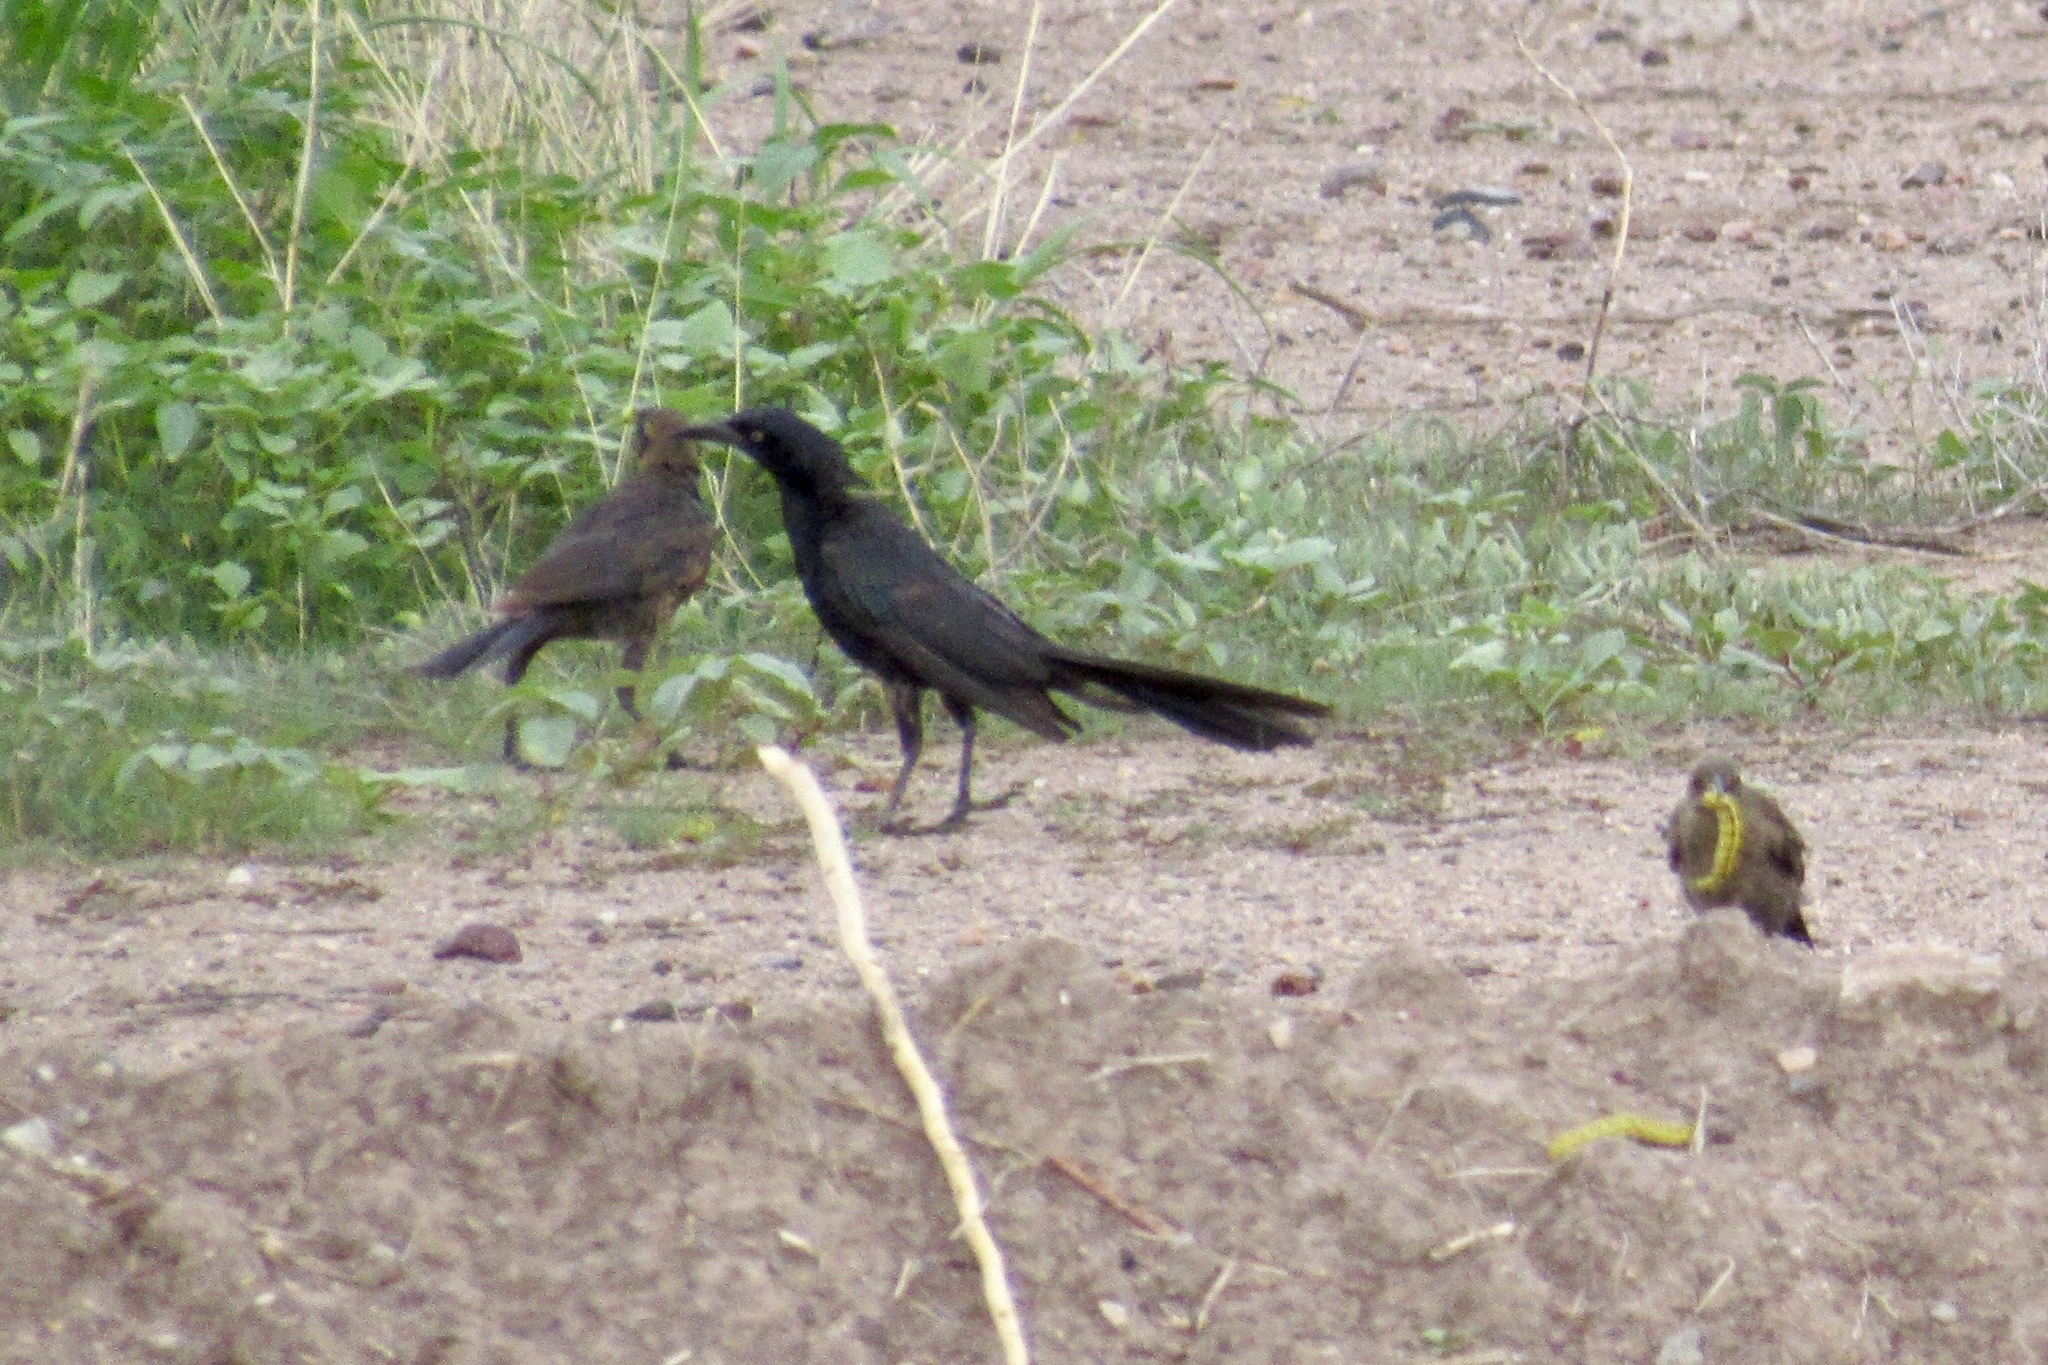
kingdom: Animalia
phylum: Chordata
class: Aves
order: Passeriformes
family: Icteridae
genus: Quiscalus
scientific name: Quiscalus mexicanus
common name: Great-tailed grackle
